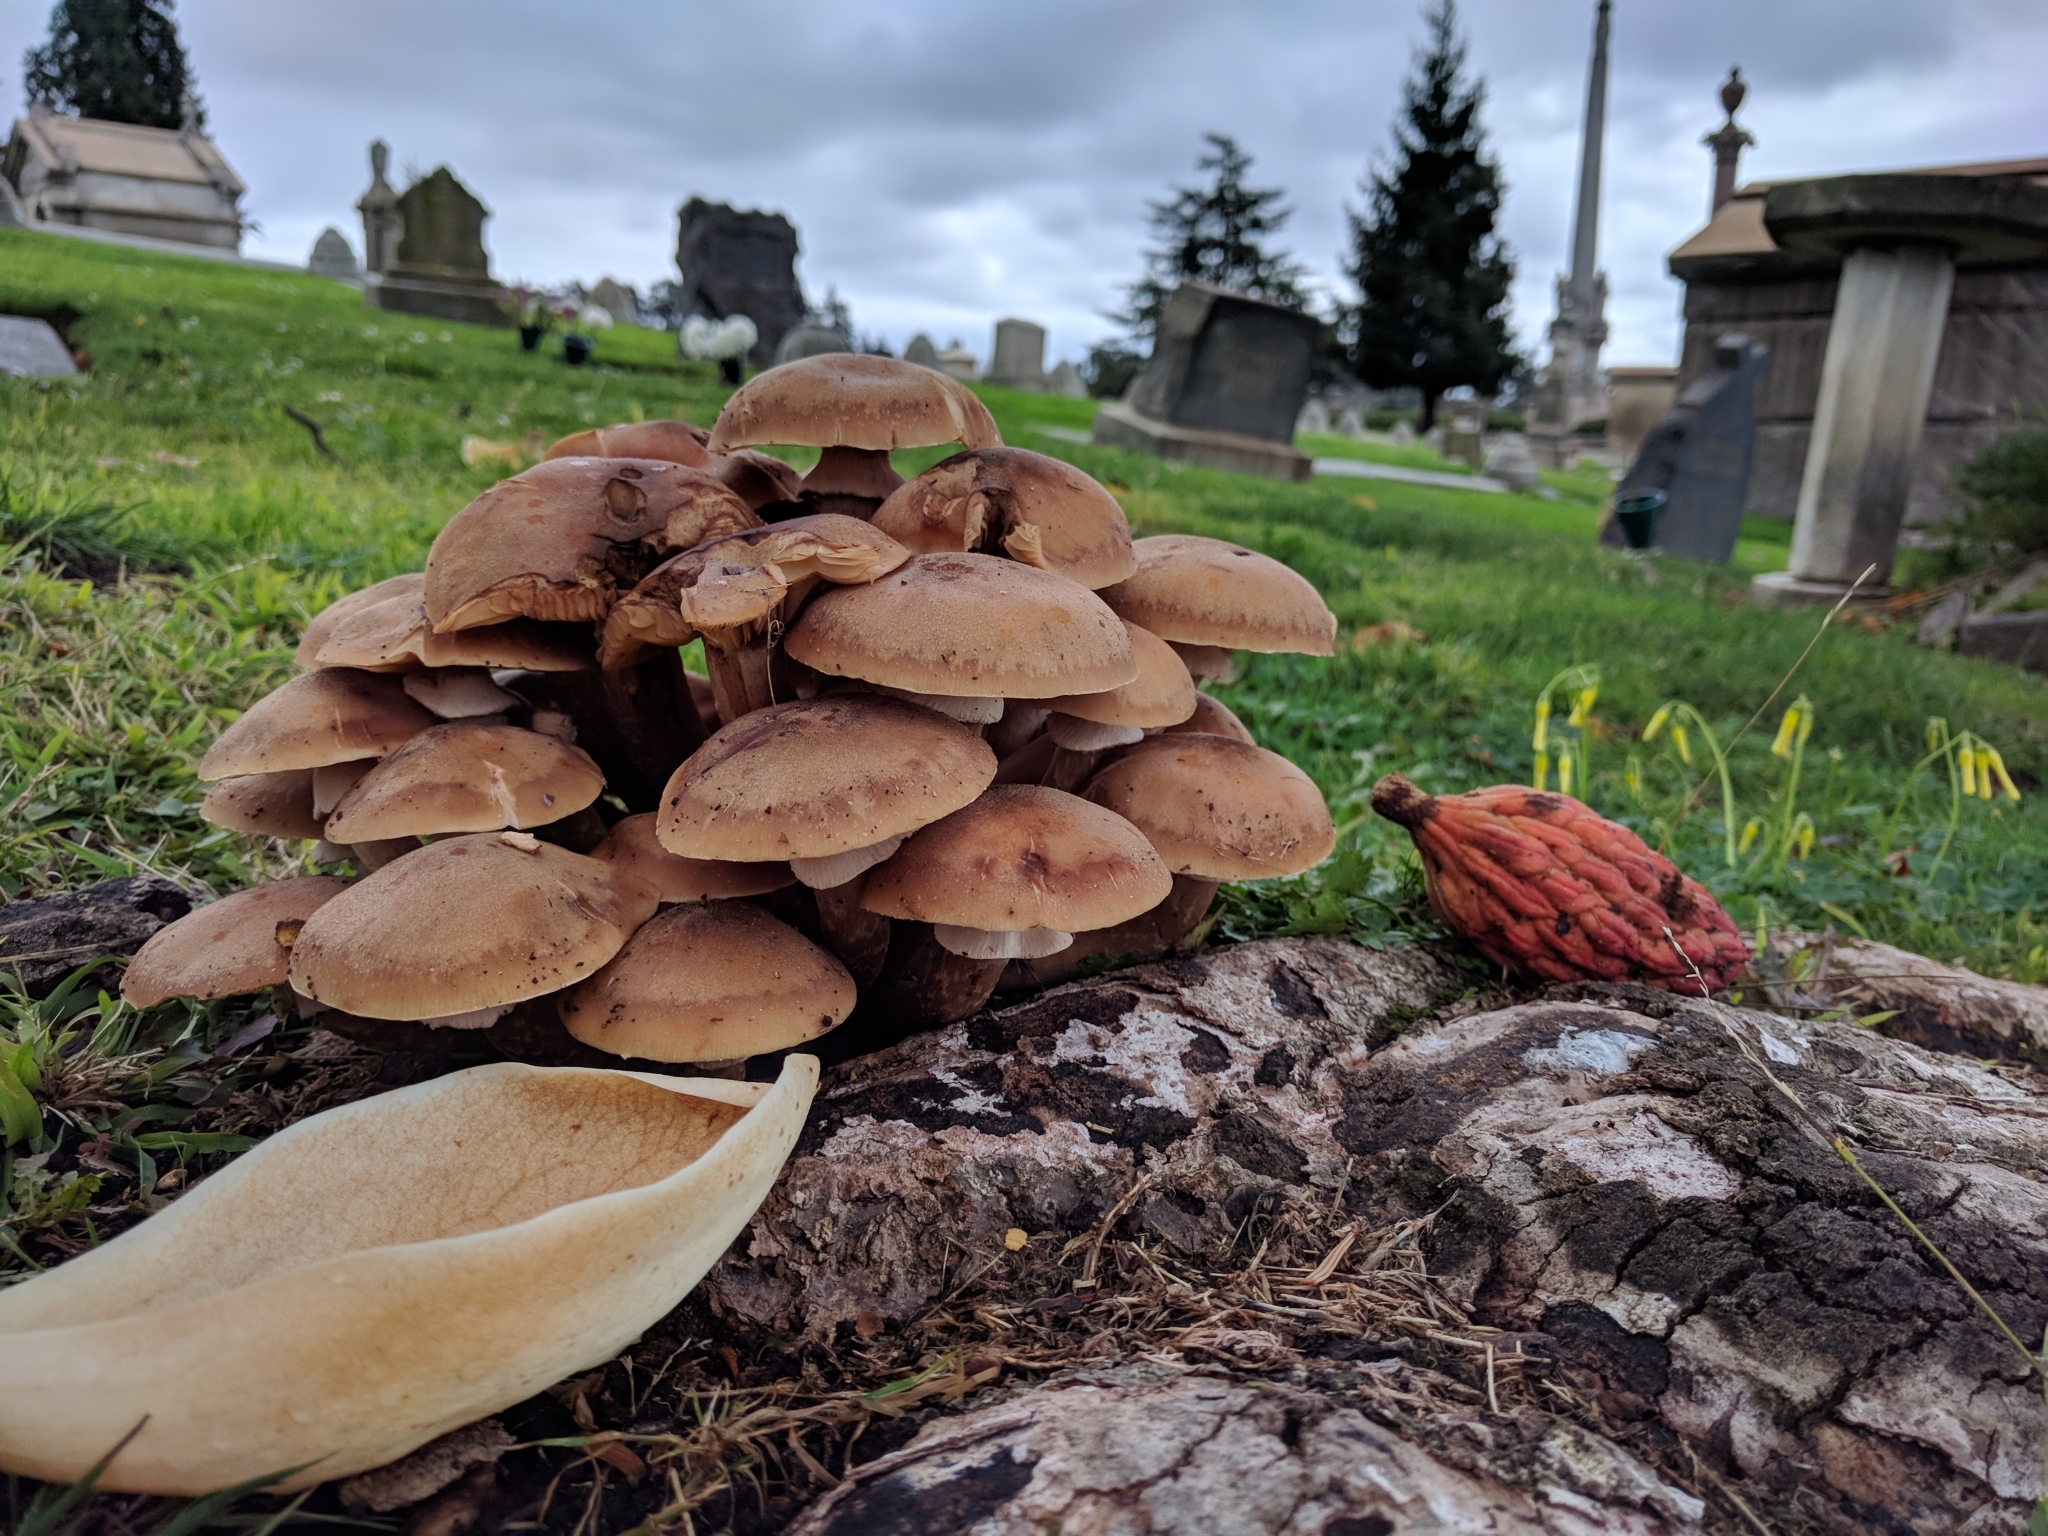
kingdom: Fungi
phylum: Basidiomycota
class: Agaricomycetes
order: Agaricales
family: Physalacriaceae
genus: Armillaria
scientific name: Armillaria mellea
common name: Honey fungus
